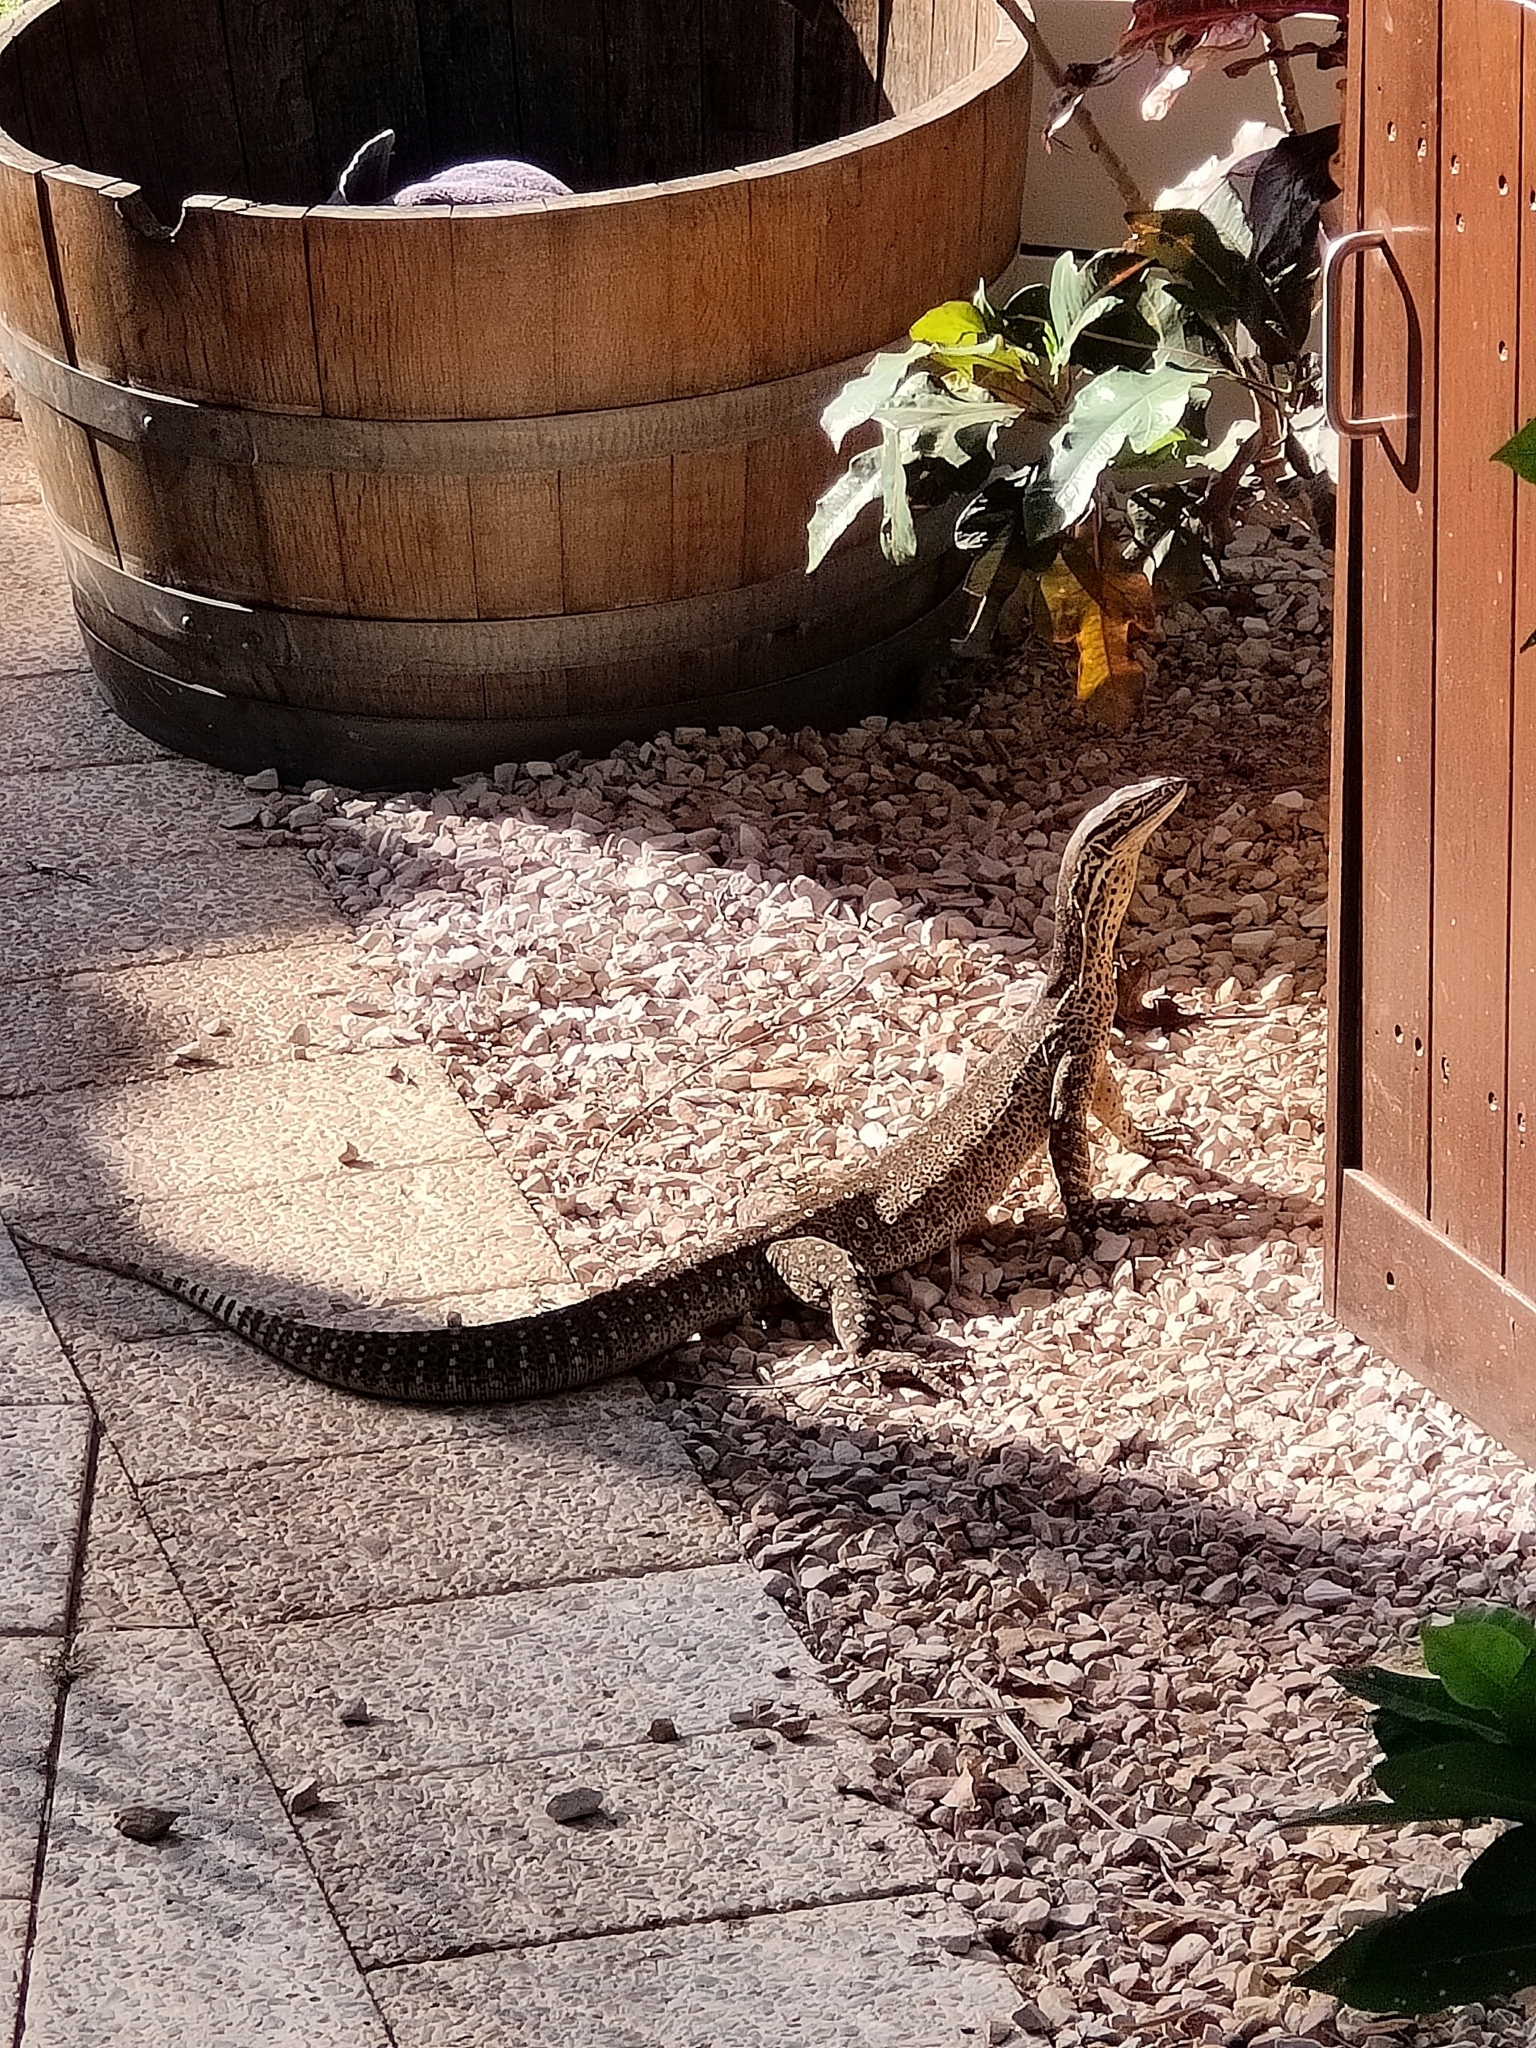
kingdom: Animalia
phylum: Chordata
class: Squamata
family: Varanidae
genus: Varanus
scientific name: Varanus panoptes
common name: Yellow-spotted monitor
